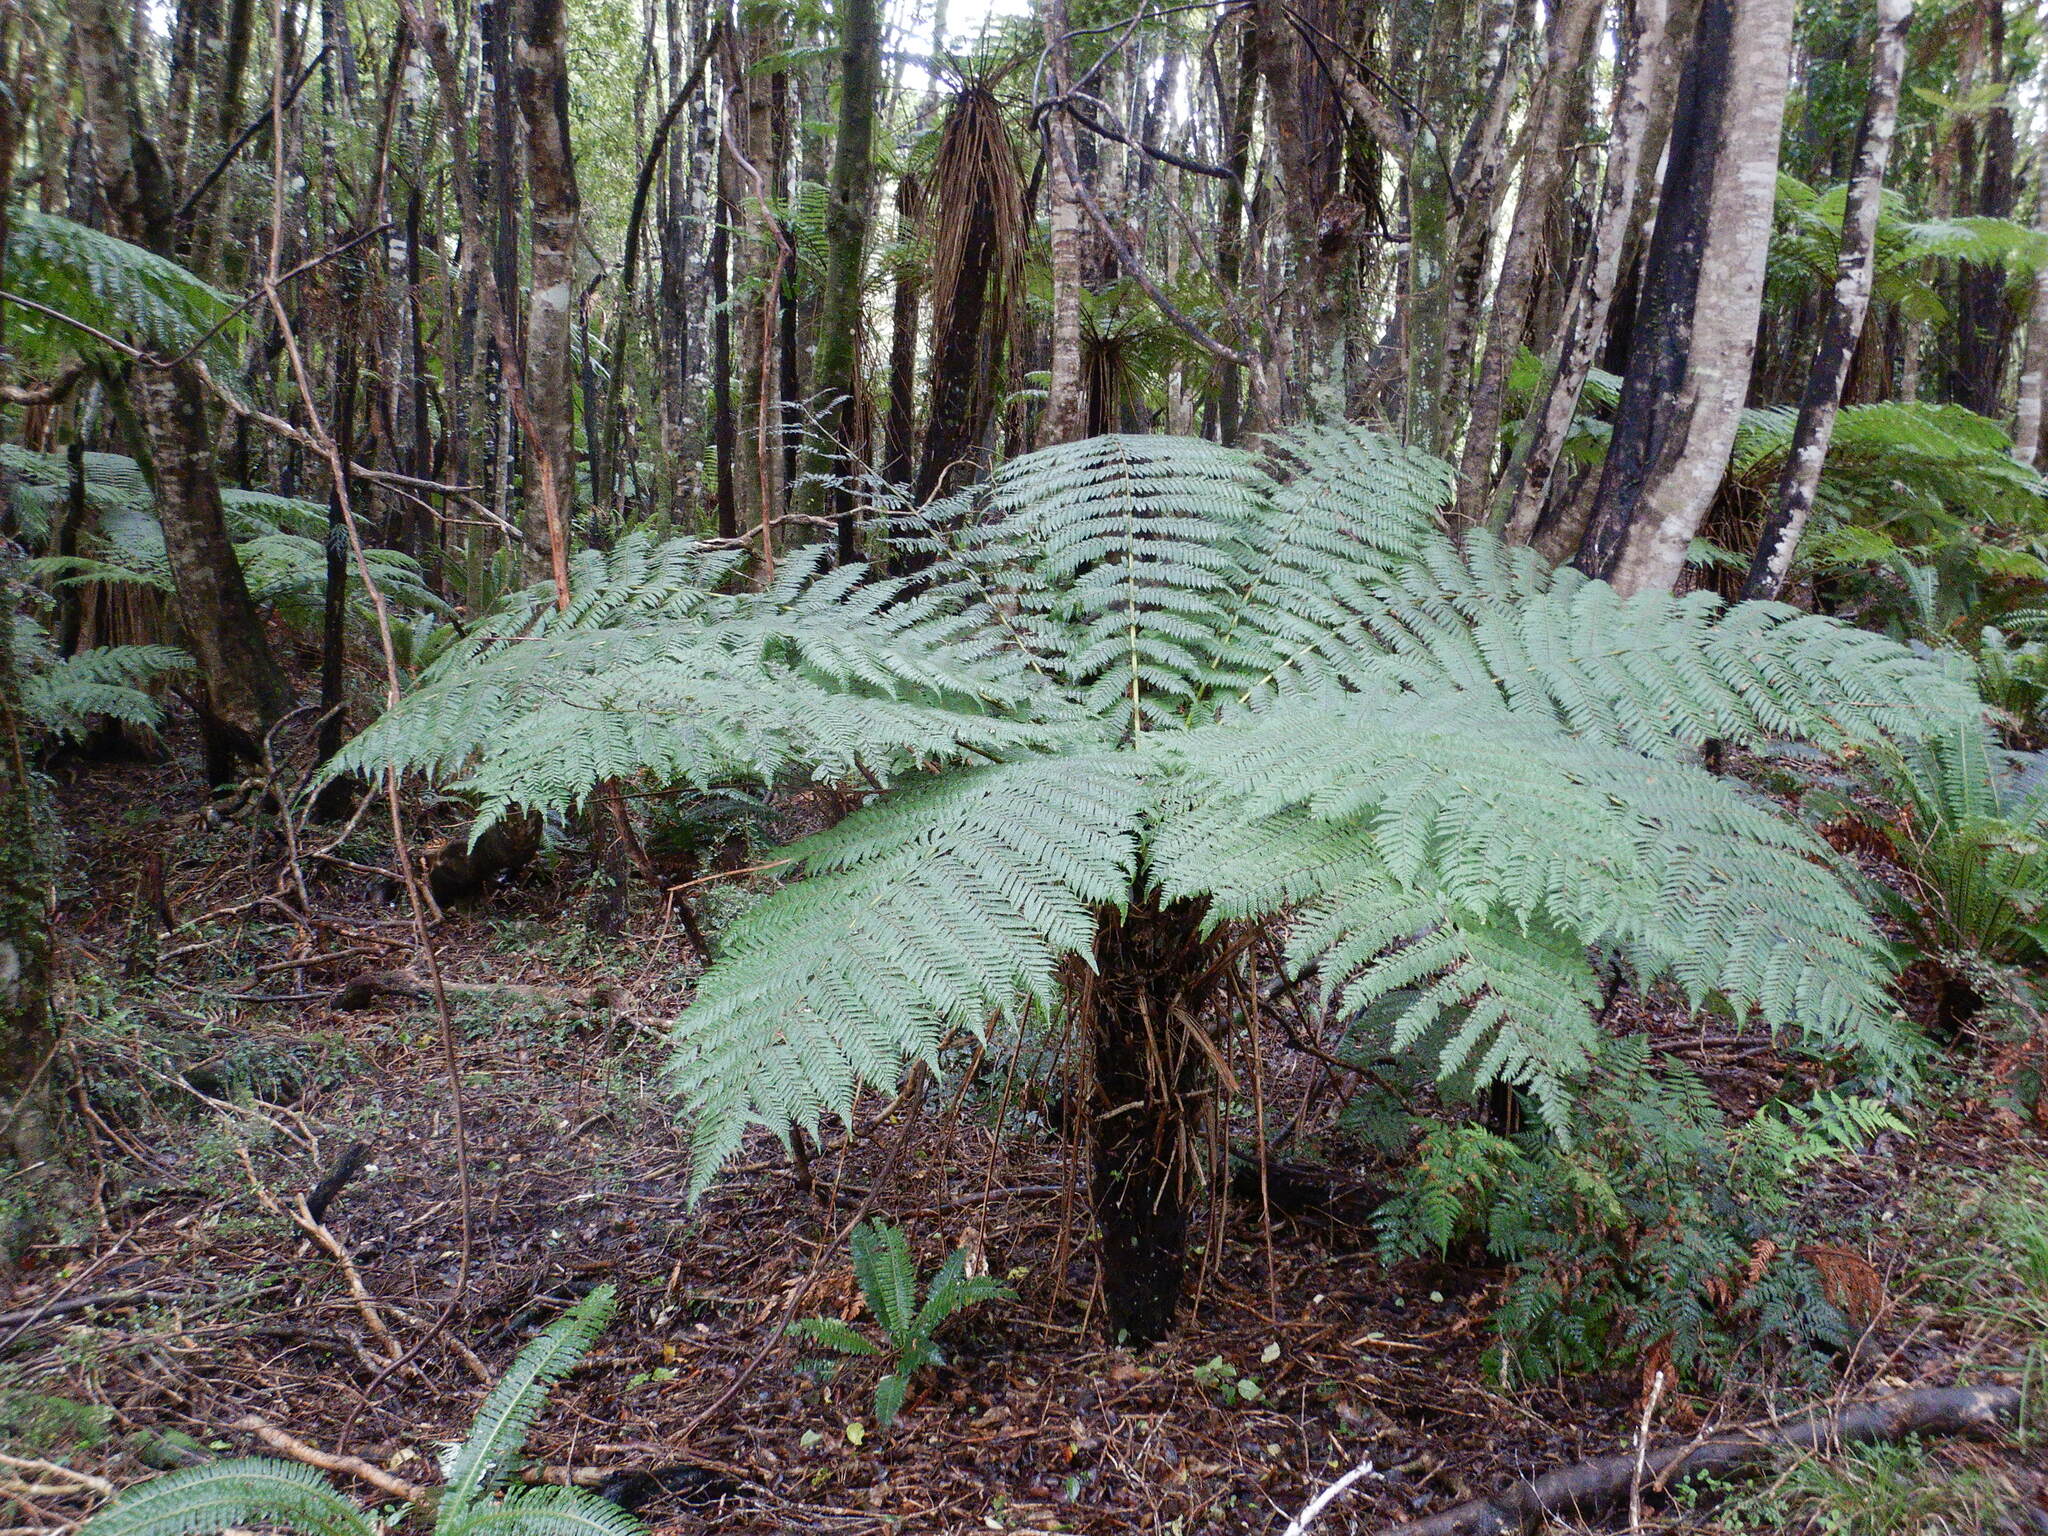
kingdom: Plantae
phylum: Tracheophyta
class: Polypodiopsida
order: Cyatheales
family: Cyatheaceae
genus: Alsophila
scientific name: Alsophila smithii
